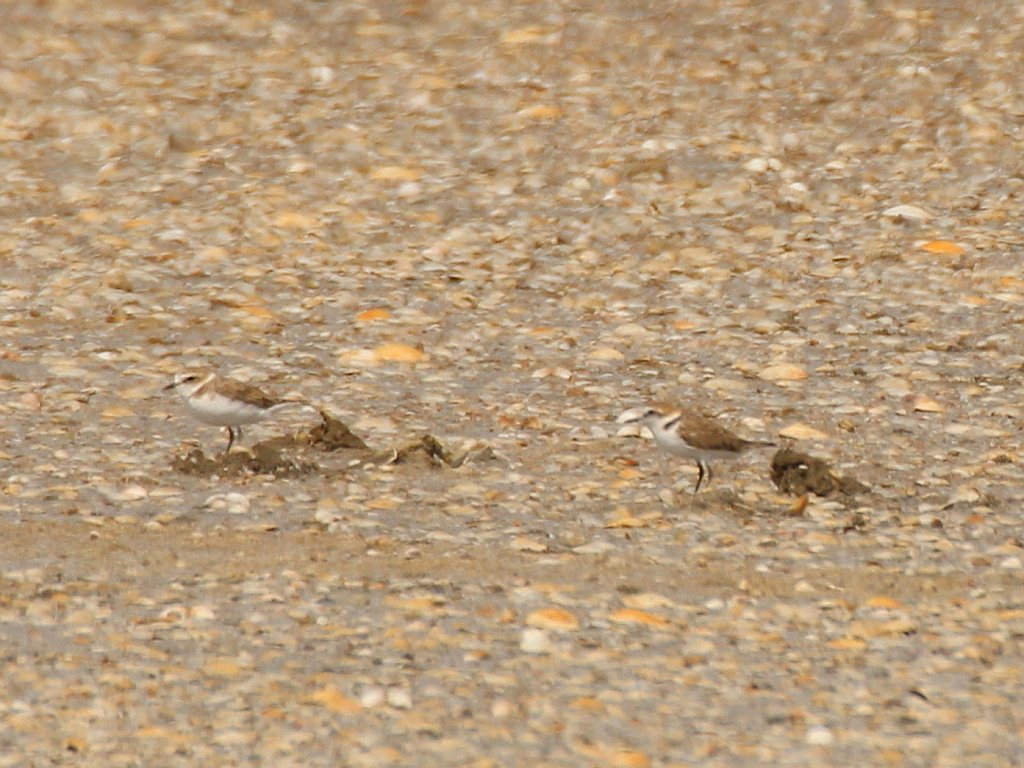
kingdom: Animalia
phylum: Chordata
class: Aves
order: Charadriiformes
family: Charadriidae
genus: Charadrius
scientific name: Charadrius alexandrinus
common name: Kentish plover
